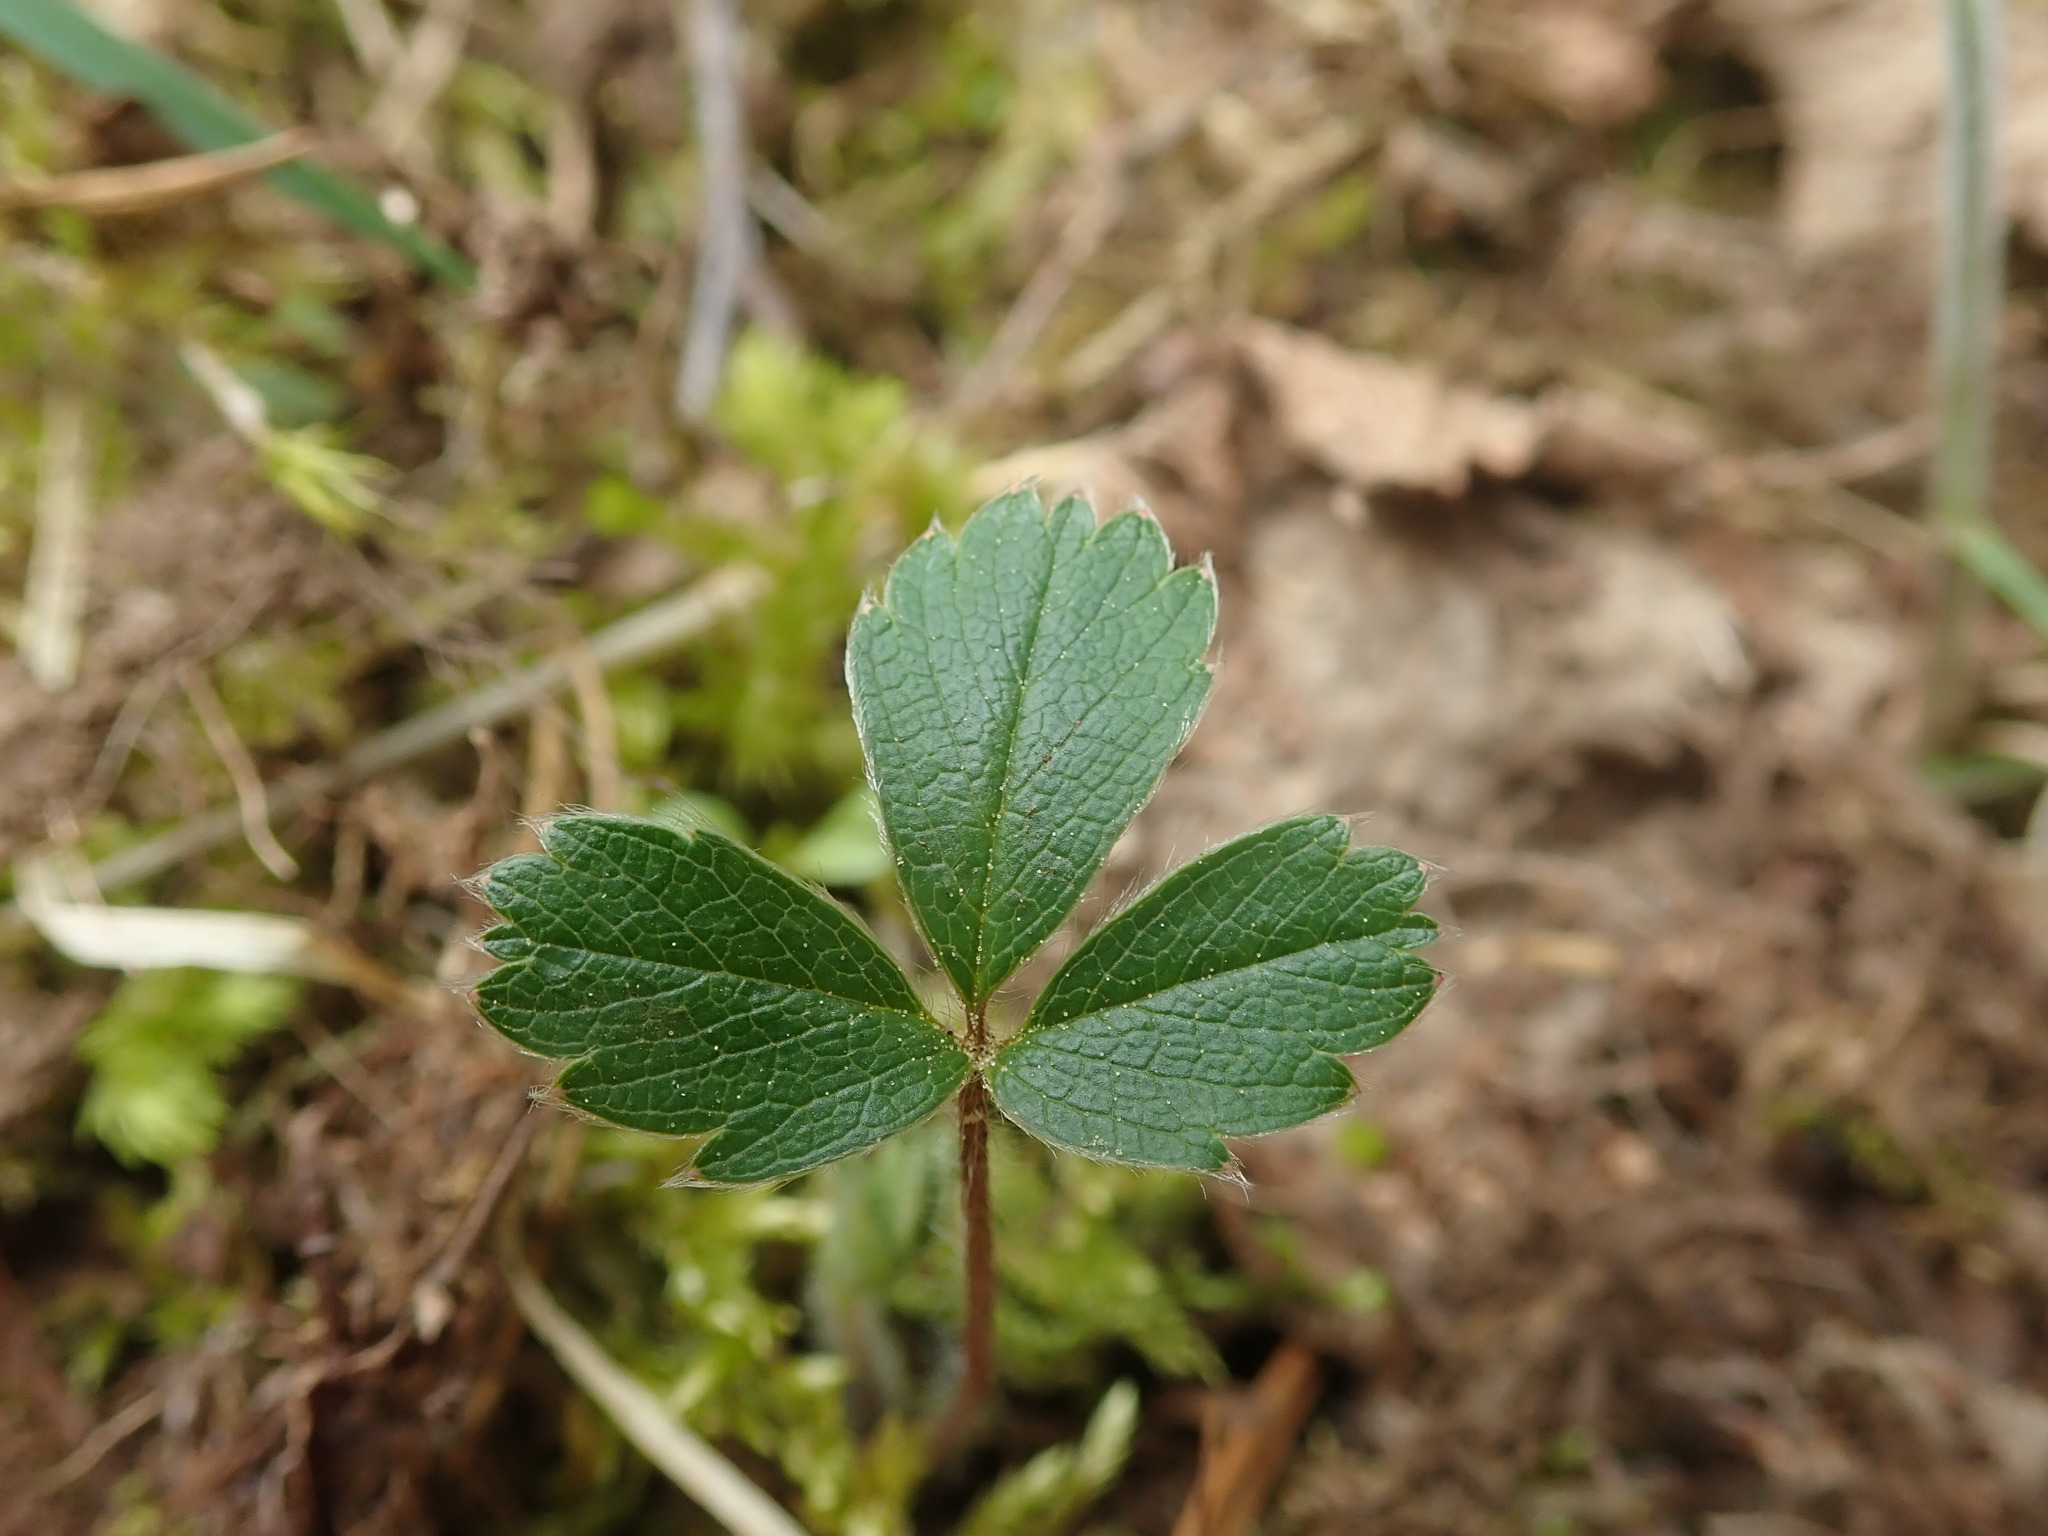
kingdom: Plantae
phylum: Tracheophyta
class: Magnoliopsida
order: Rosales
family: Rosaceae
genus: Fragaria
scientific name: Fragaria virginiana
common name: Thickleaved wild strawberry
